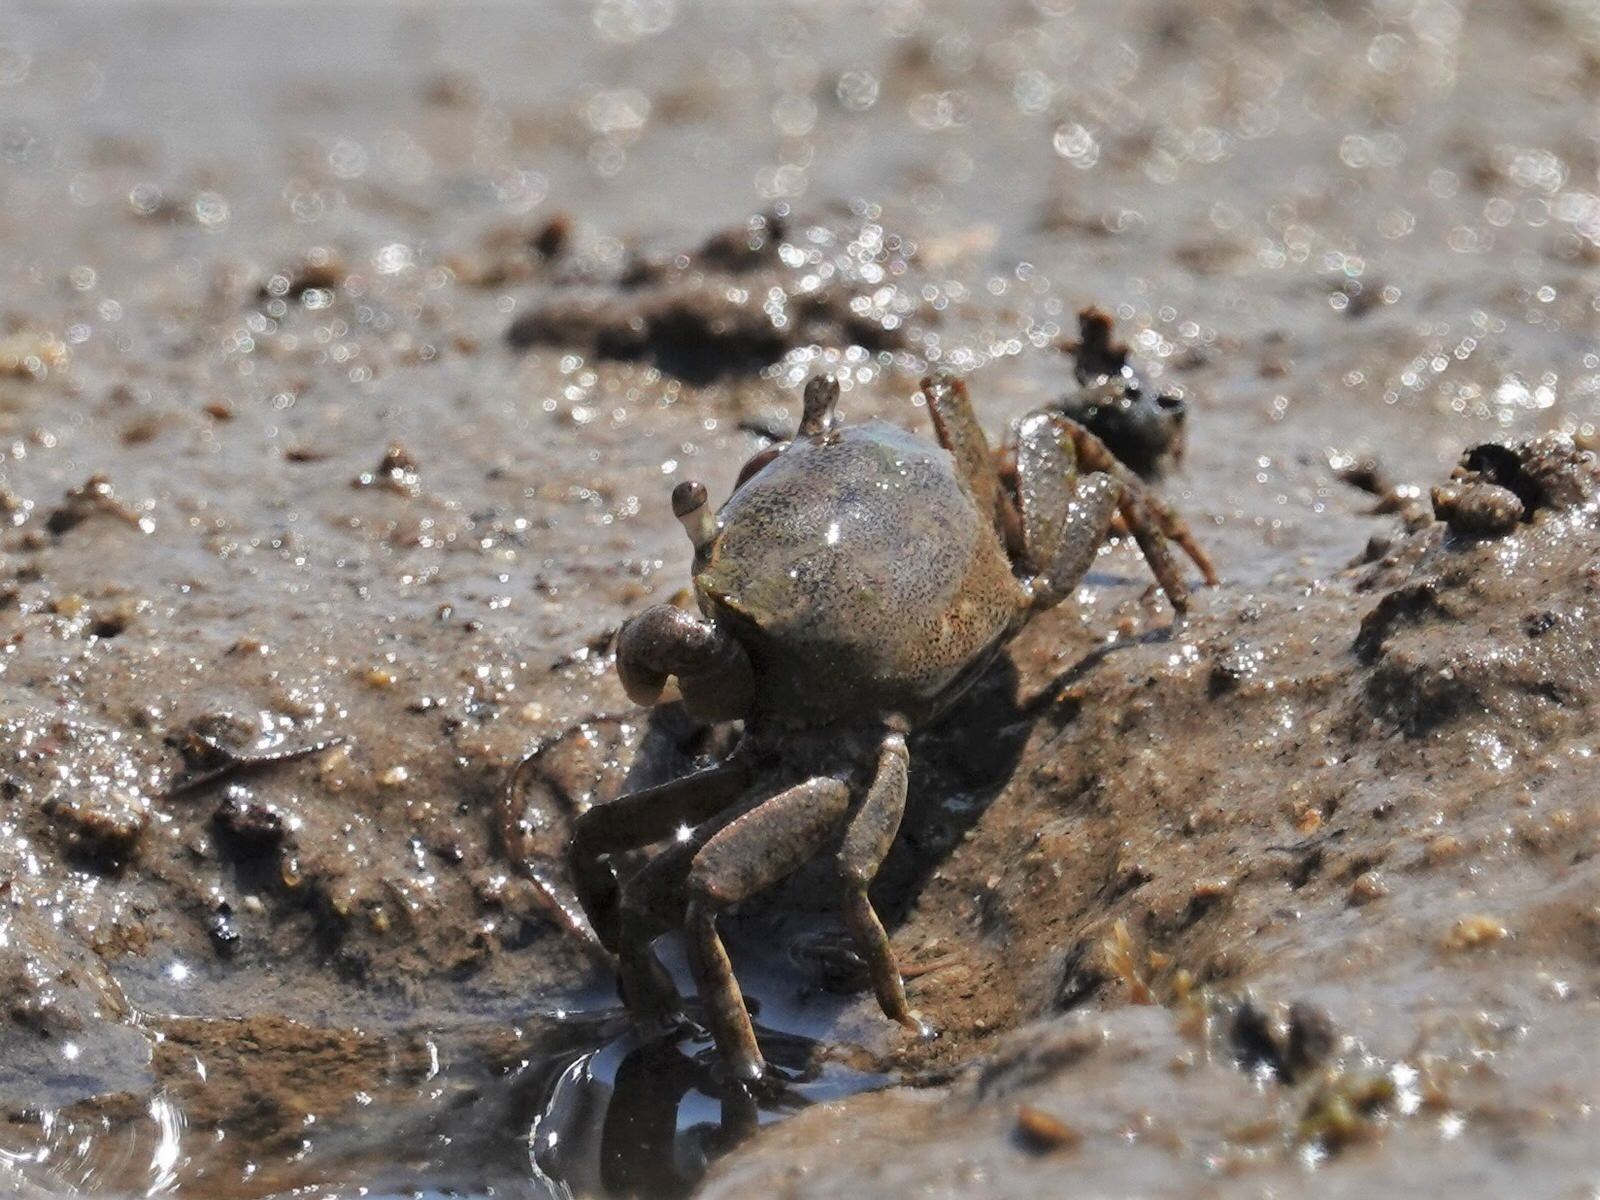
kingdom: Animalia
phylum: Arthropoda
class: Malacostraca
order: Decapoda
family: Varunidae
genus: Austrohelice
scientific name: Austrohelice crassa
